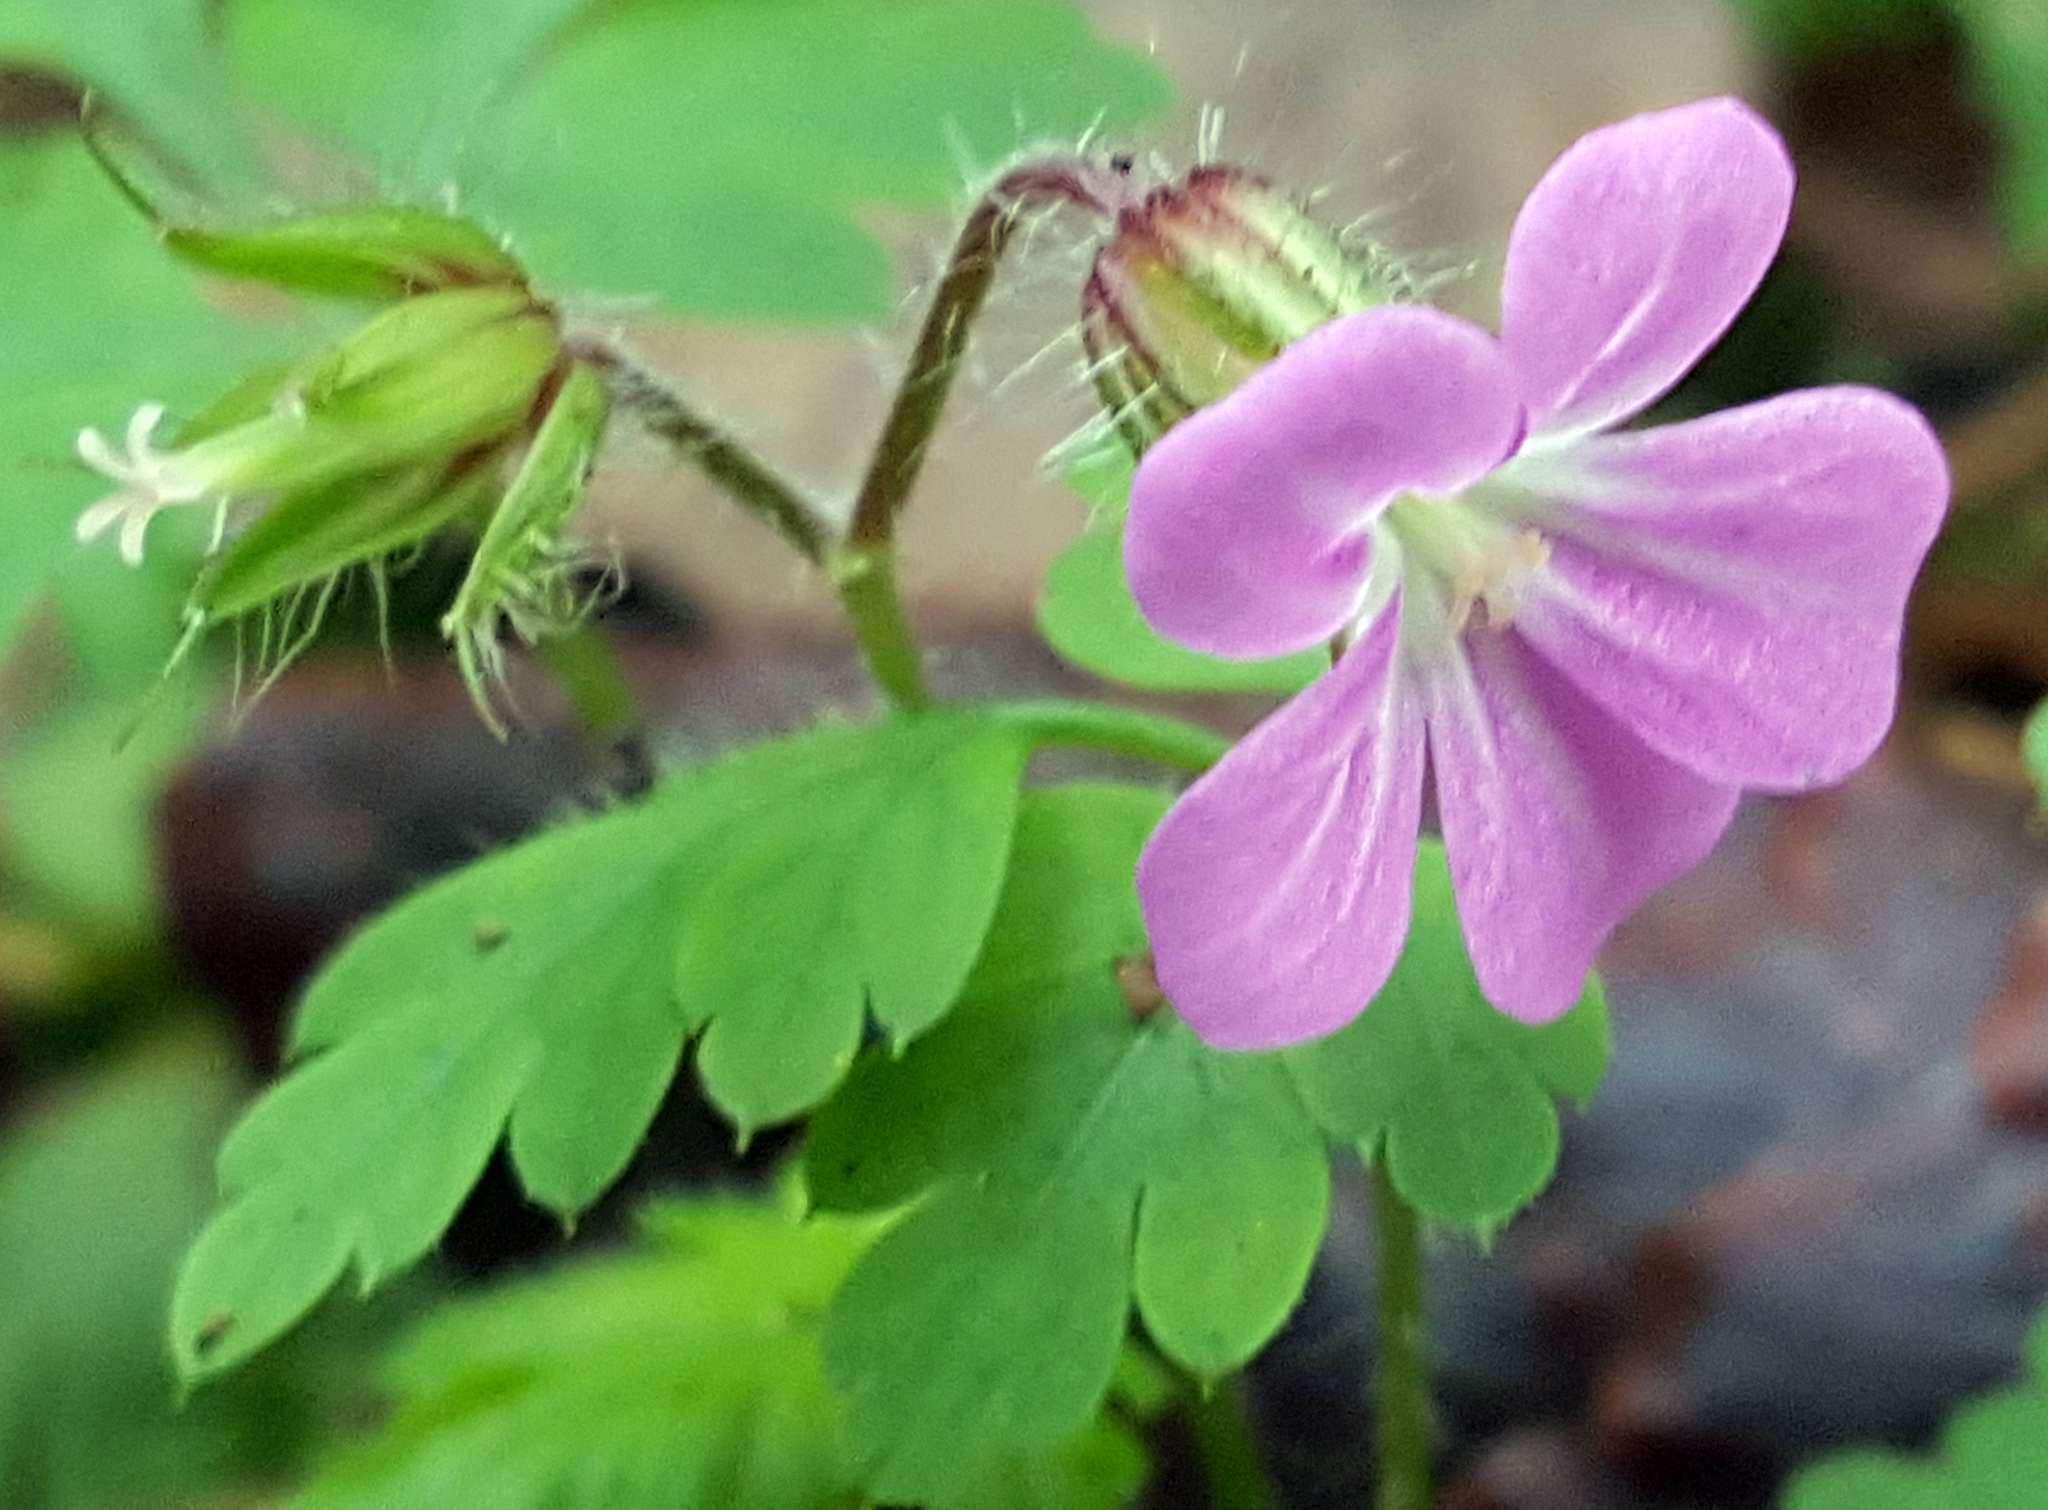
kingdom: Plantae
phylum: Tracheophyta
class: Magnoliopsida
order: Geraniales
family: Geraniaceae
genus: Geranium
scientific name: Geranium robertianum
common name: Herb-robert
